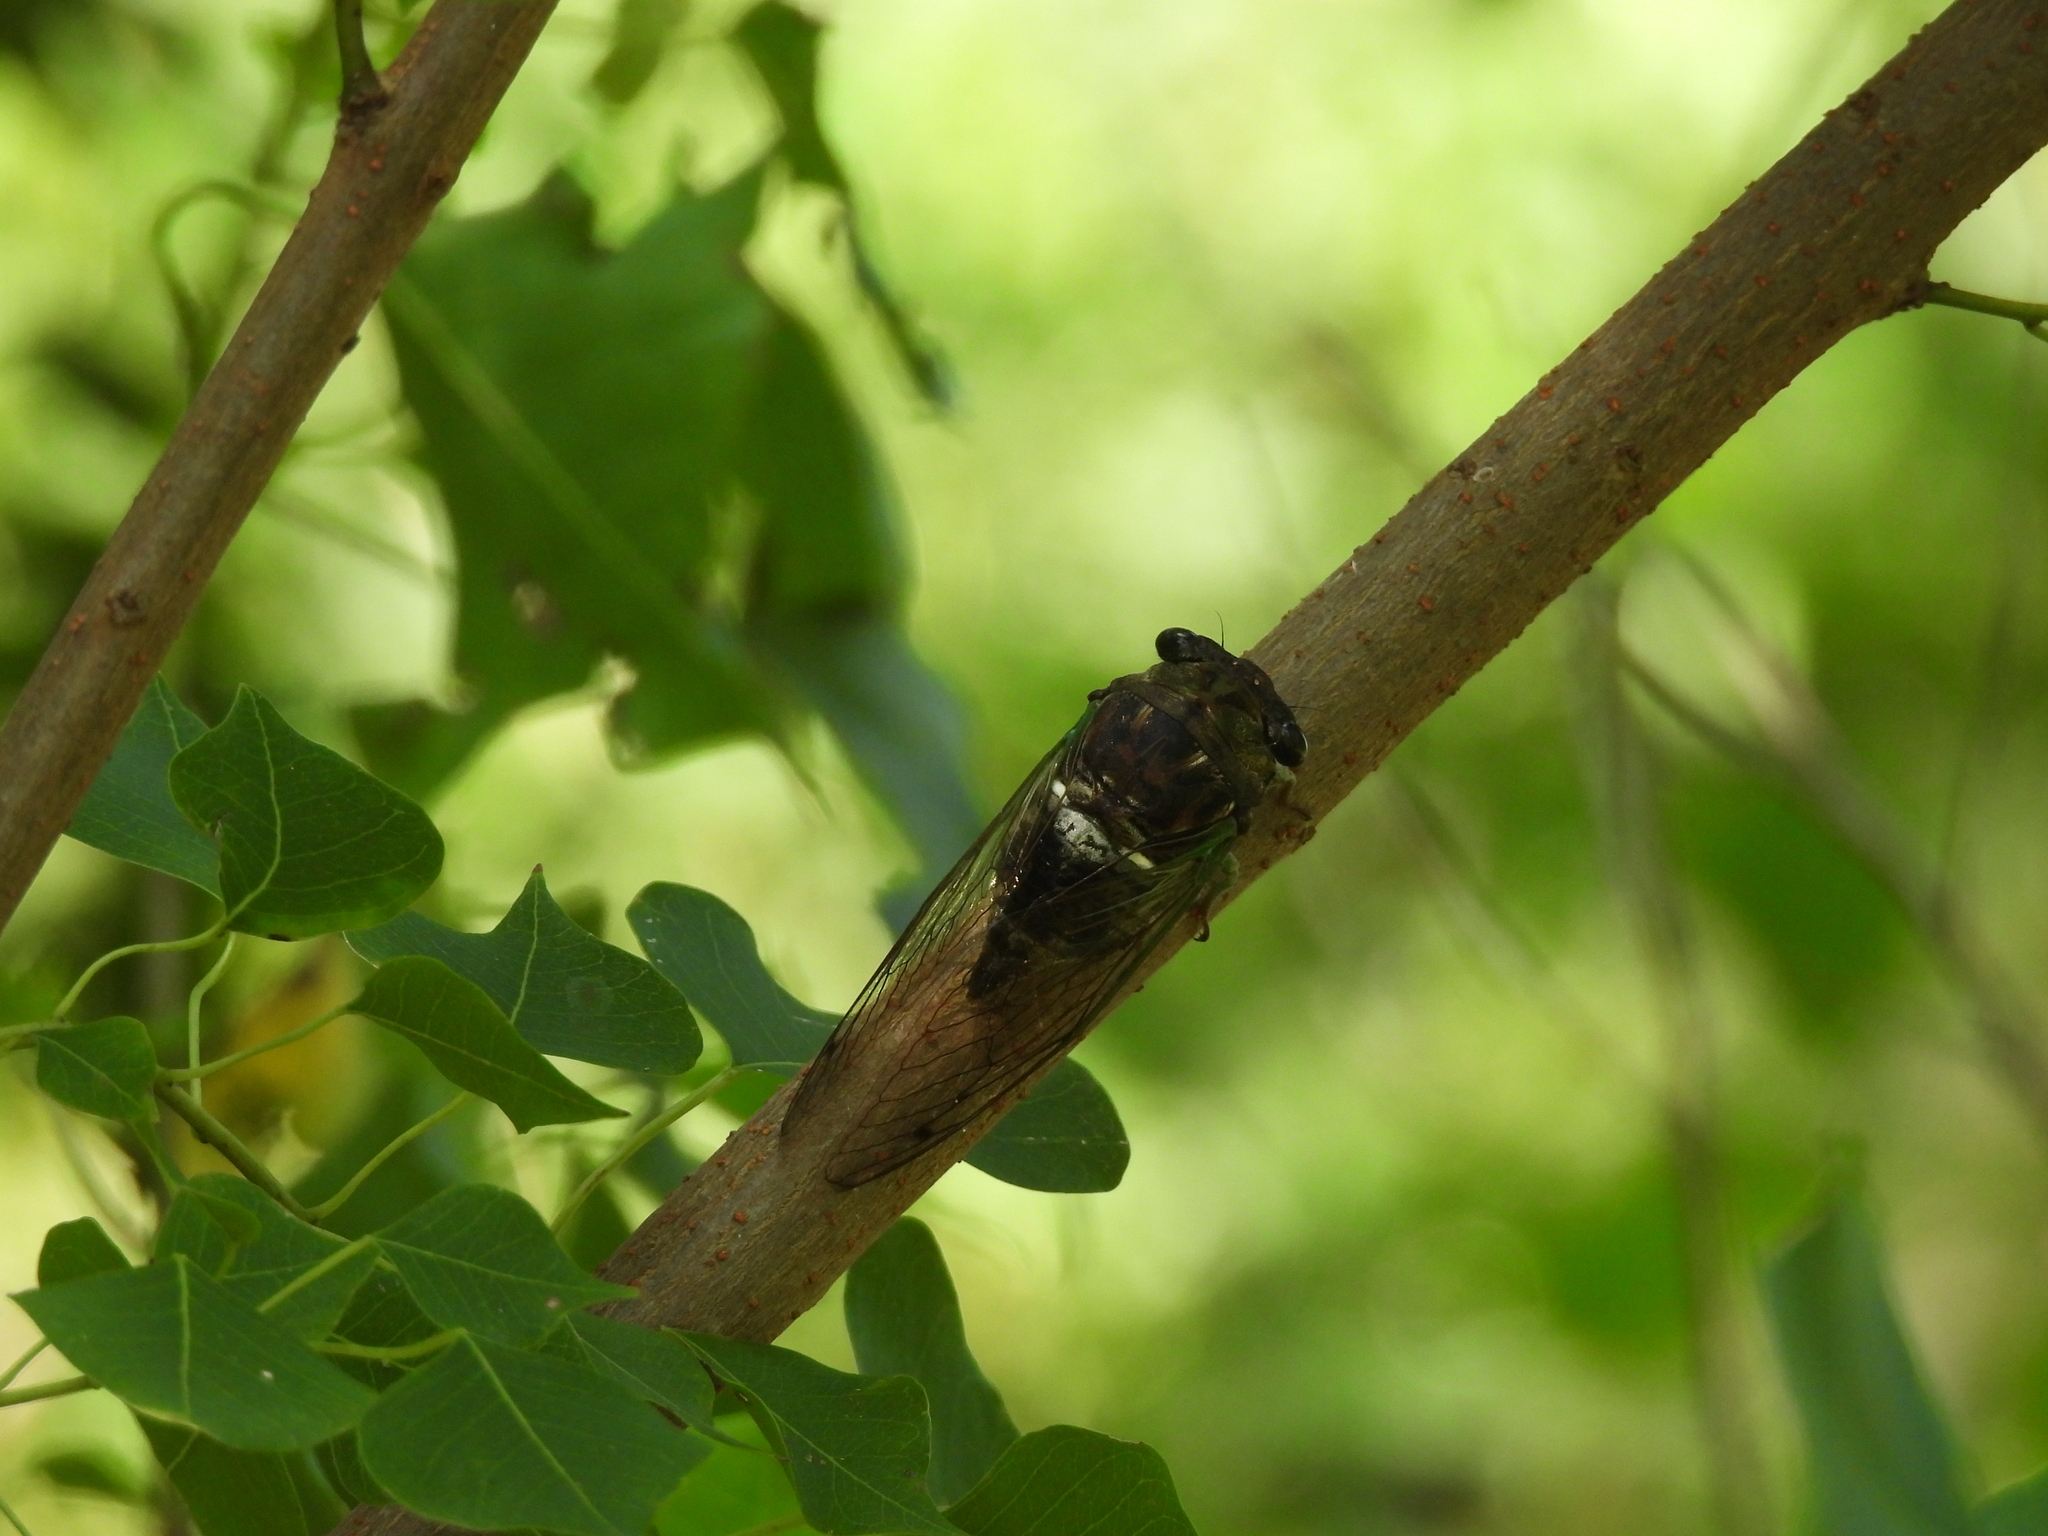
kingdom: Animalia
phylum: Arthropoda
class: Insecta
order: Hemiptera
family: Cicadidae
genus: Neotibicen
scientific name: Neotibicen tibicen
